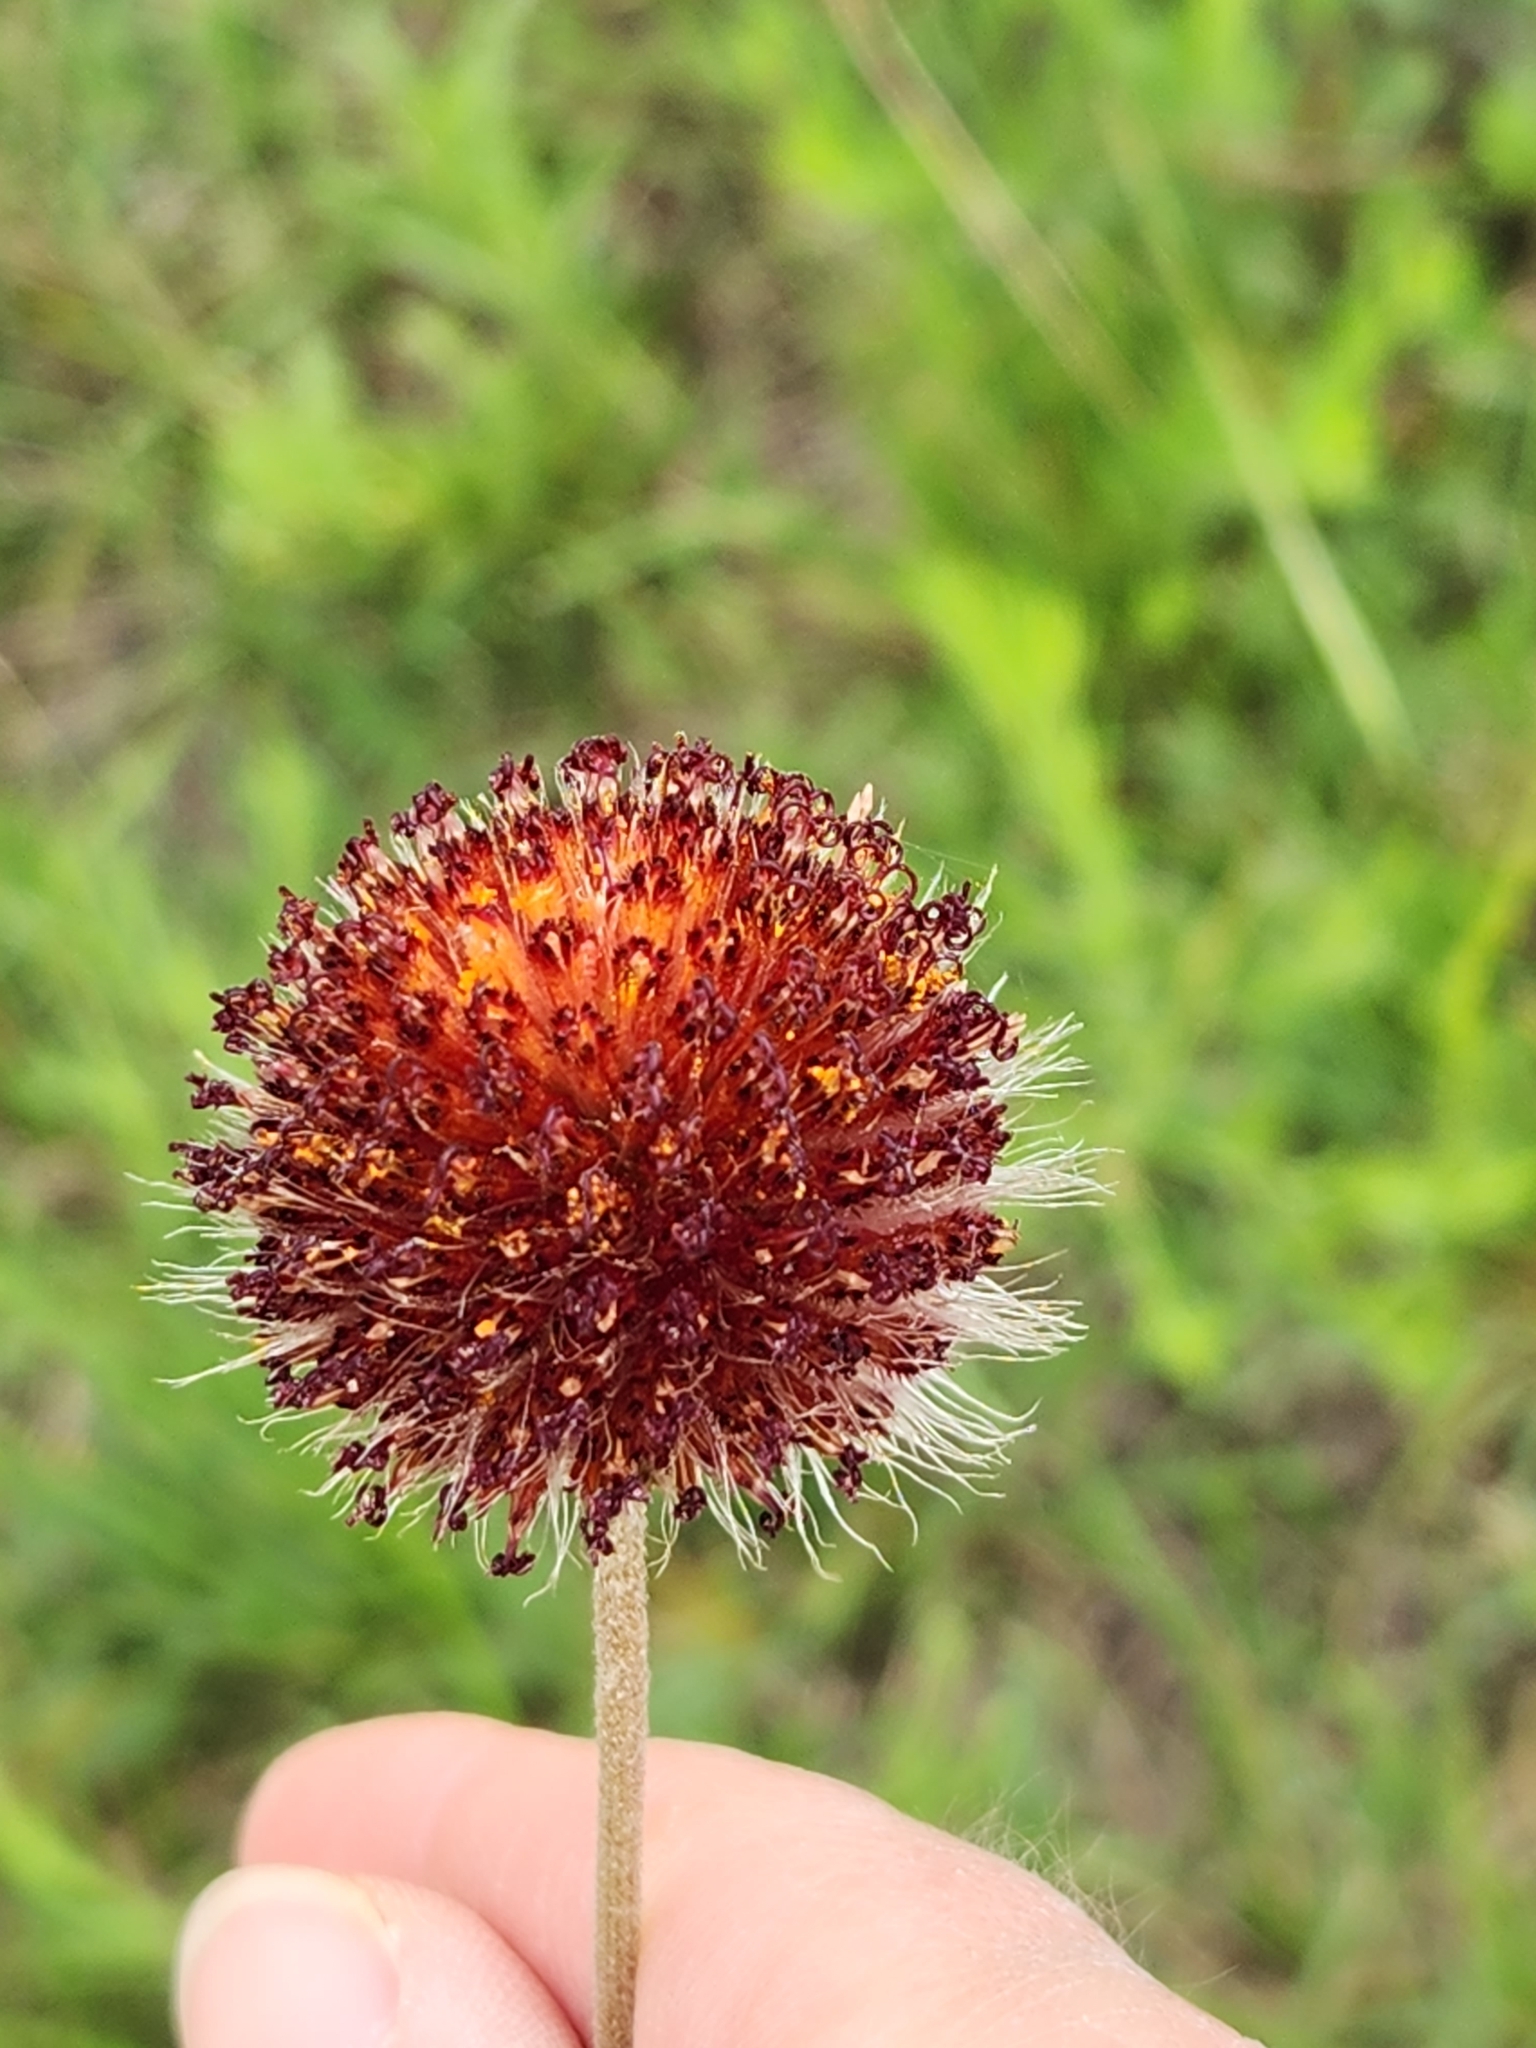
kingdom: Plantae
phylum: Tracheophyta
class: Magnoliopsida
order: Asterales
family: Asteraceae
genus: Gaillardia
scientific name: Gaillardia suavis
